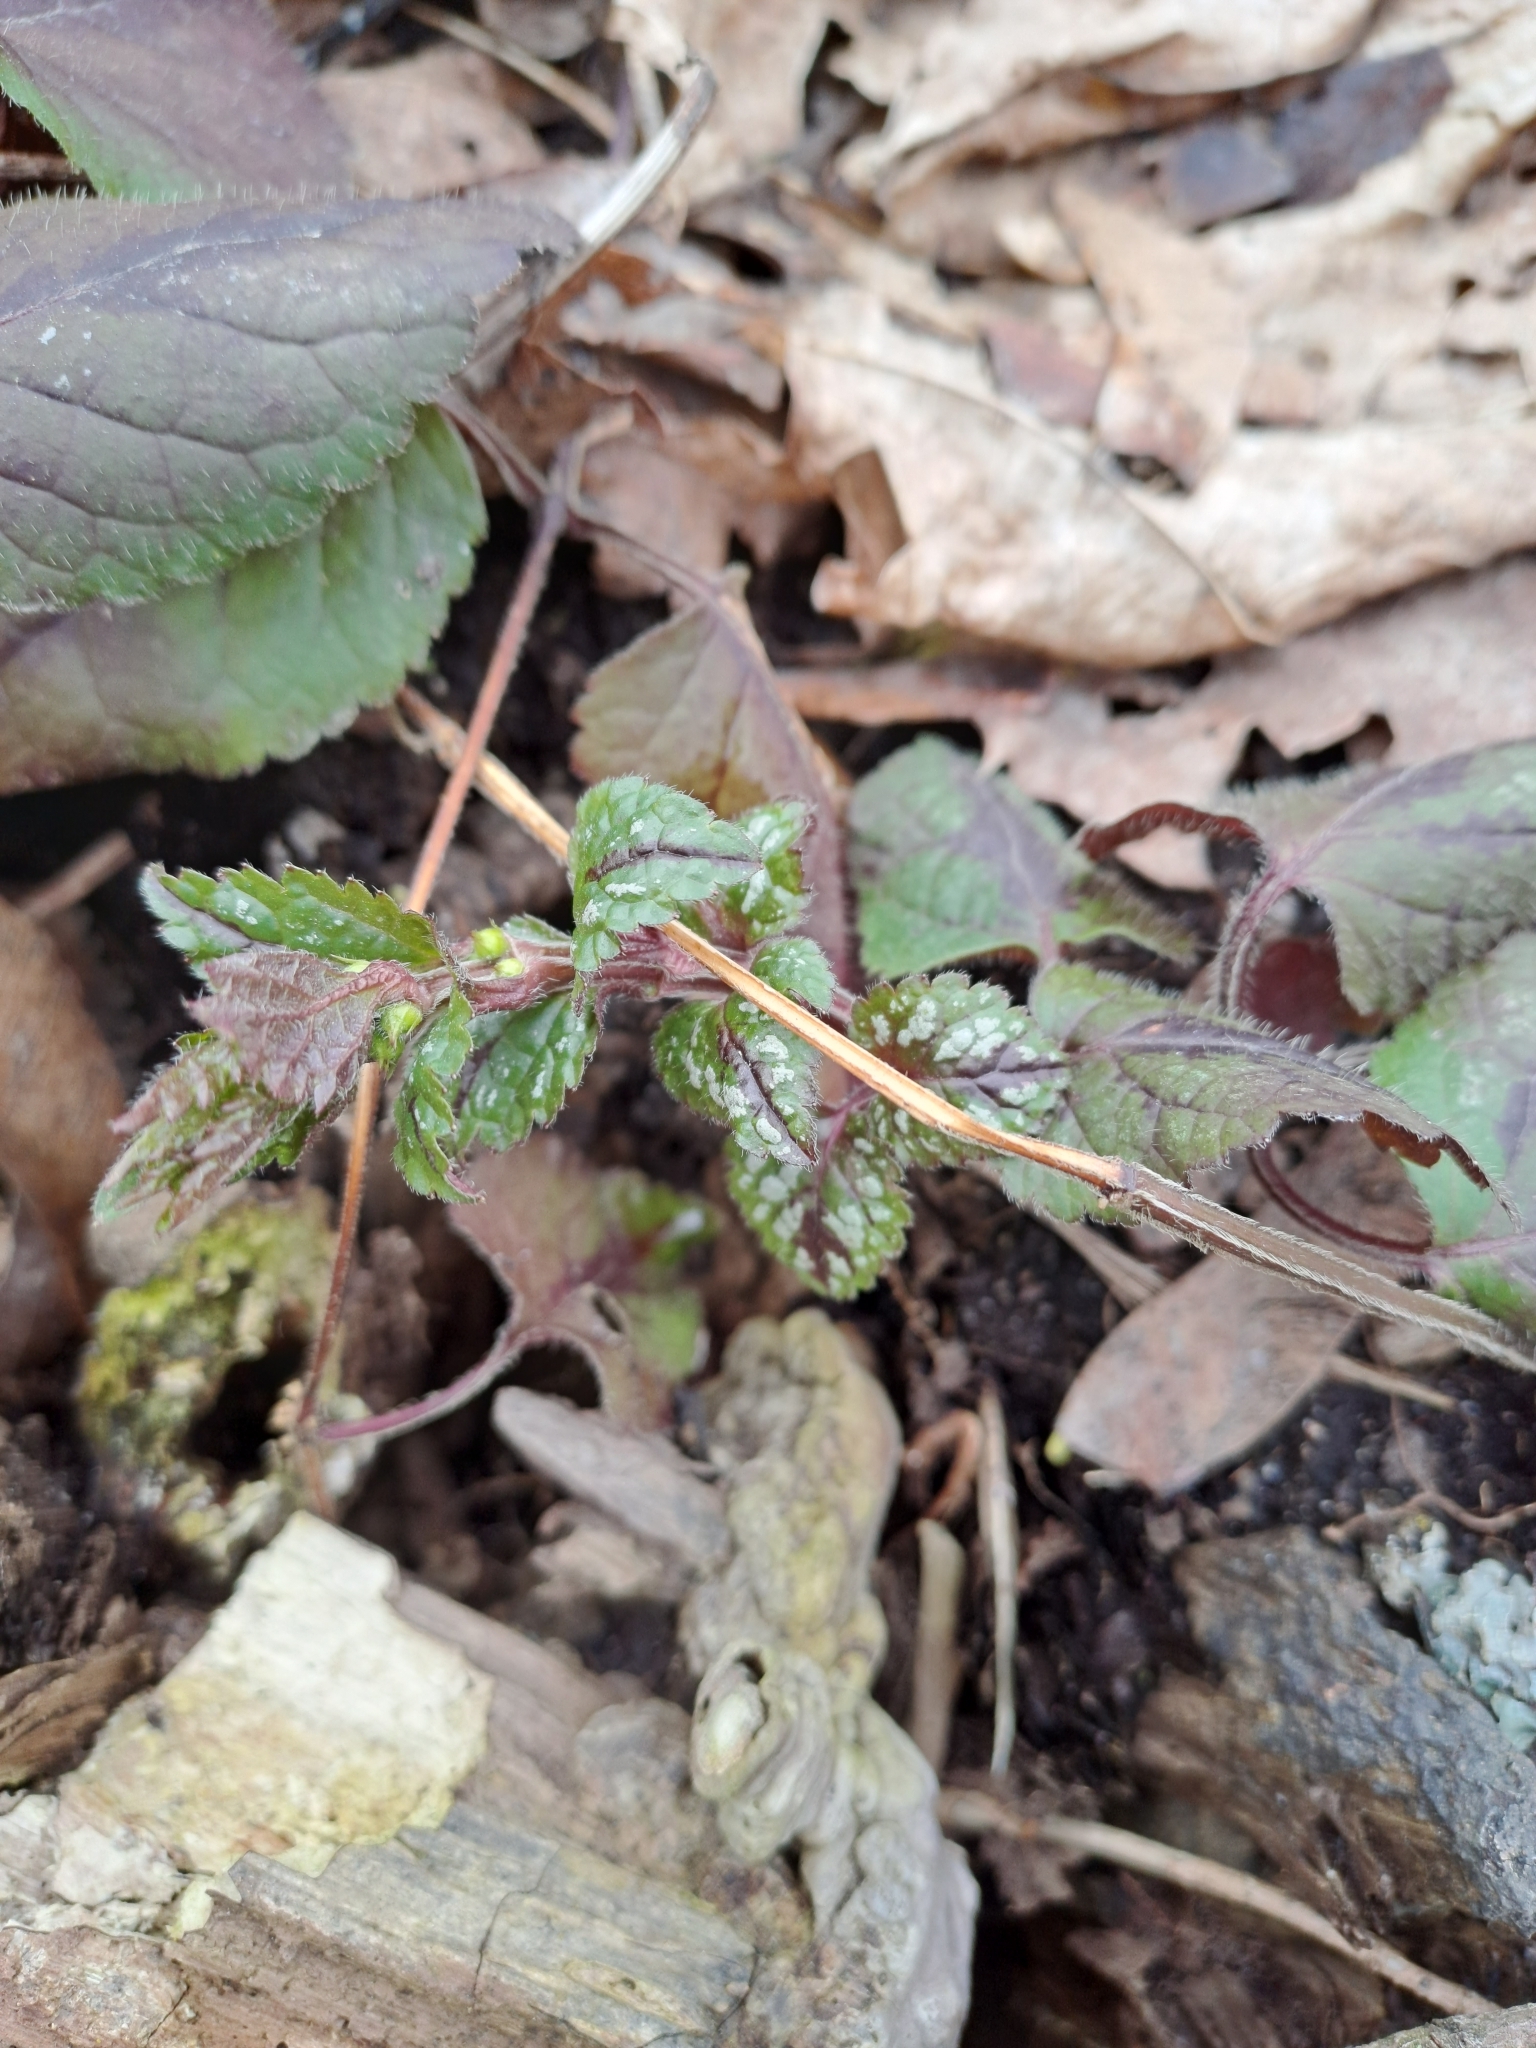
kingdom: Plantae
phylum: Tracheophyta
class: Magnoliopsida
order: Lamiales
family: Lamiaceae
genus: Lamium
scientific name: Lamium galeobdolon
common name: Yellow archangel
